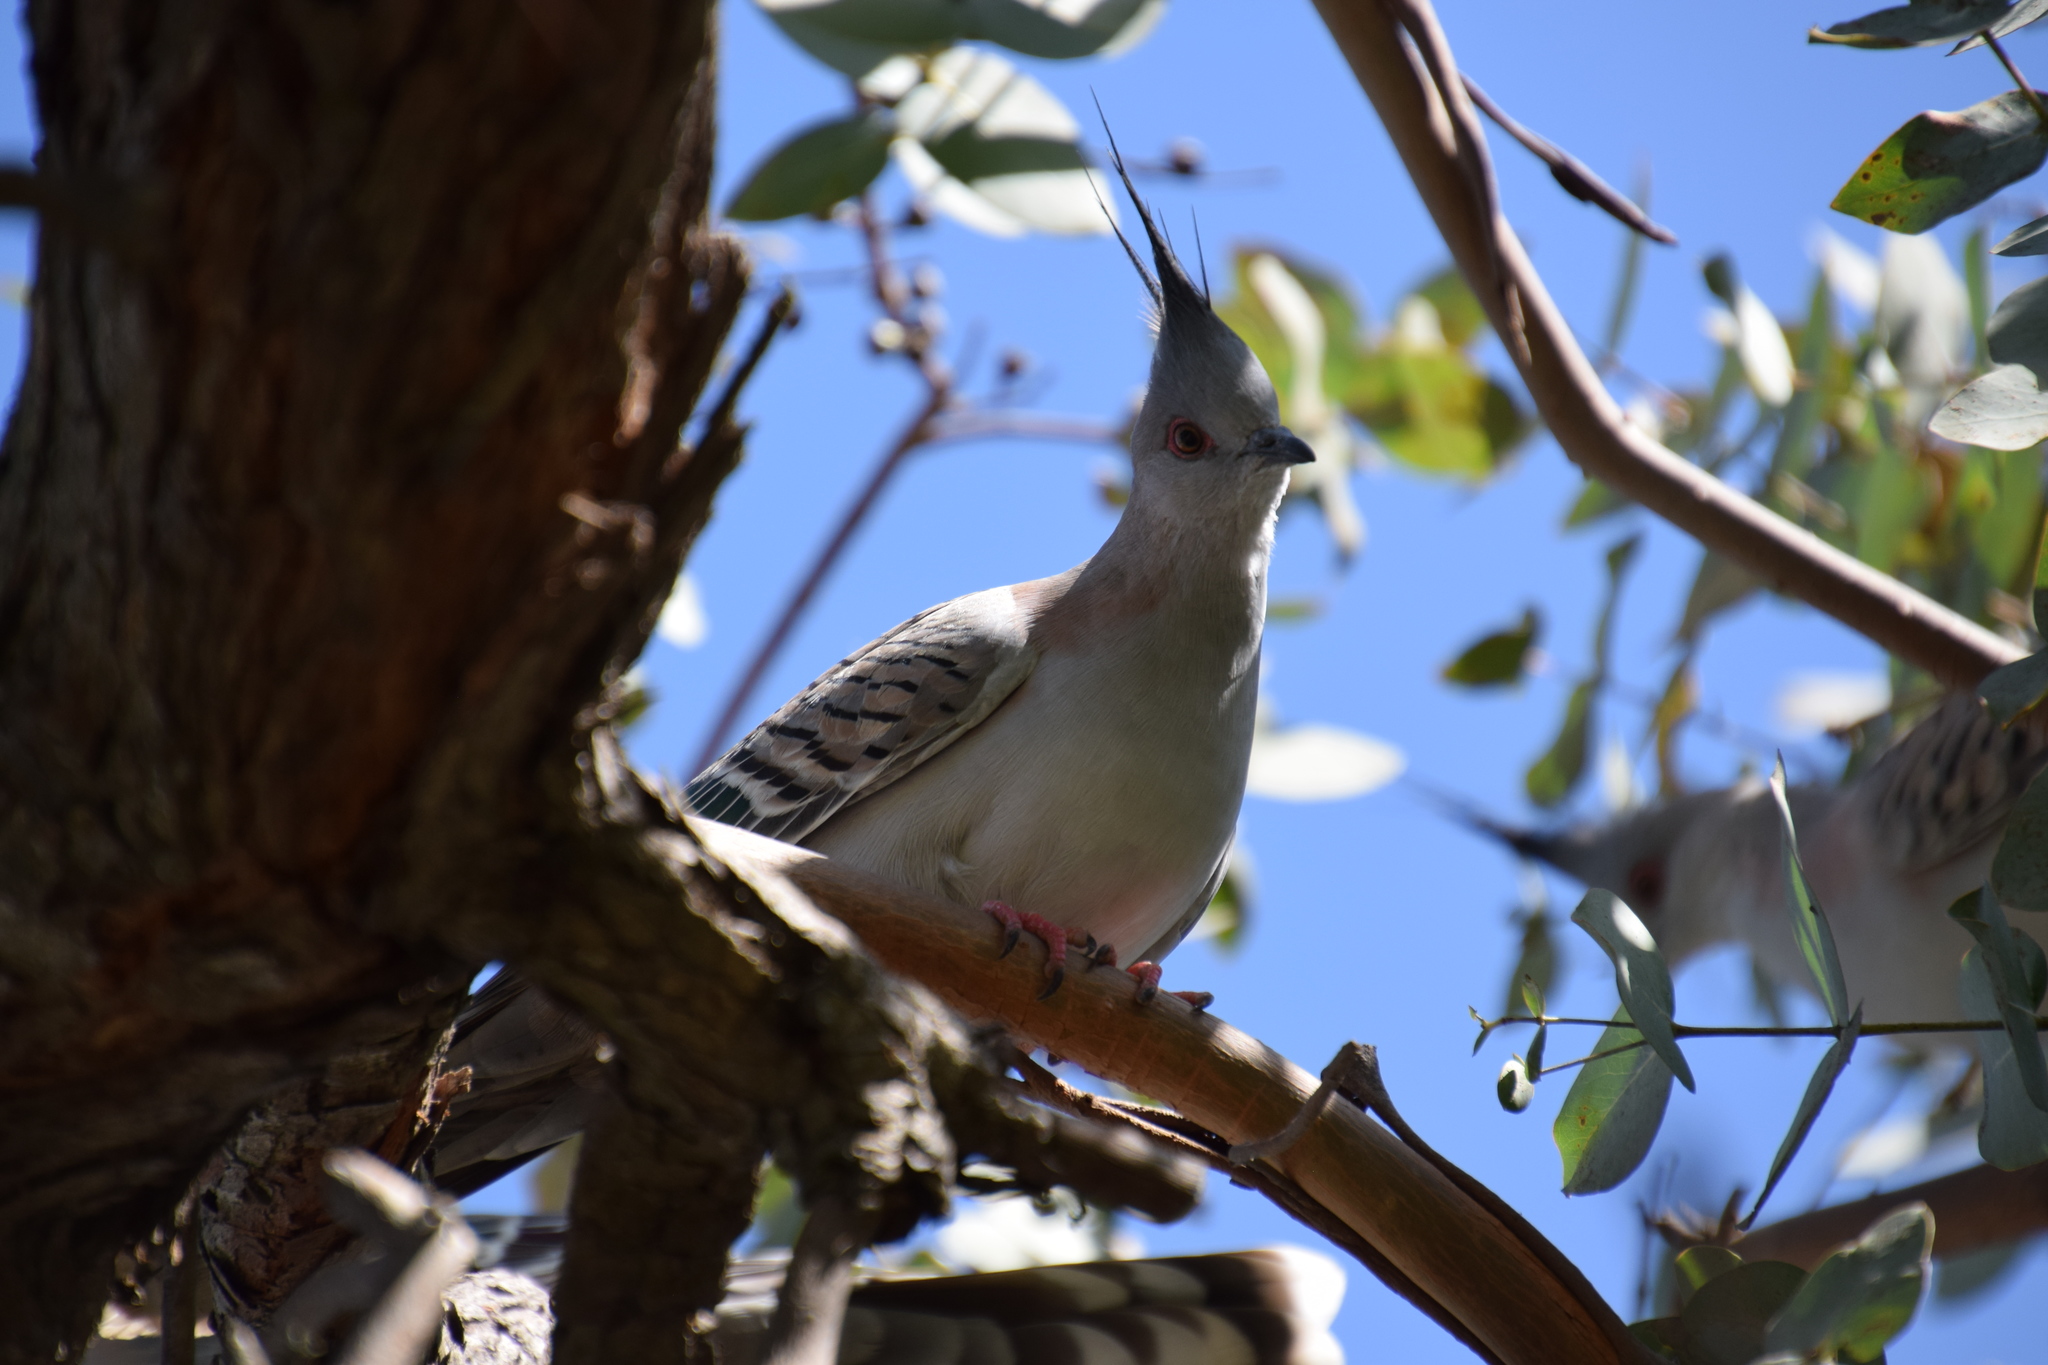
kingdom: Animalia
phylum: Chordata
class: Aves
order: Columbiformes
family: Columbidae
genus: Ocyphaps
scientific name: Ocyphaps lophotes
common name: Crested pigeon
